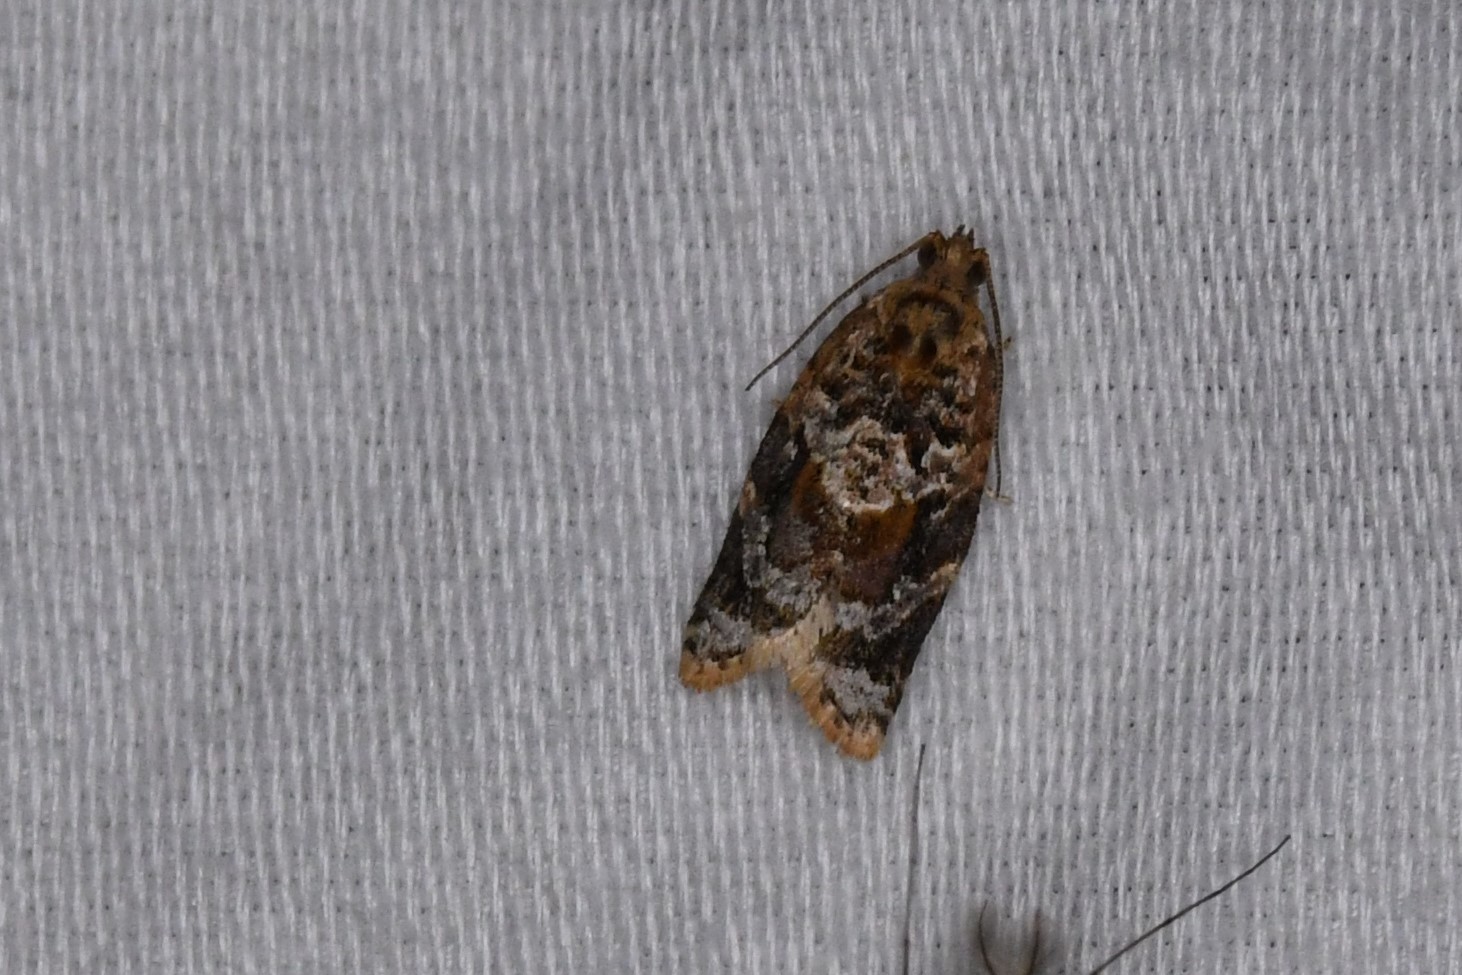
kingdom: Animalia
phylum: Arthropoda
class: Insecta
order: Lepidoptera
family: Tortricidae
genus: Argyrotaenia
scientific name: Argyrotaenia velutinana
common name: Red-banded leafroller moth
